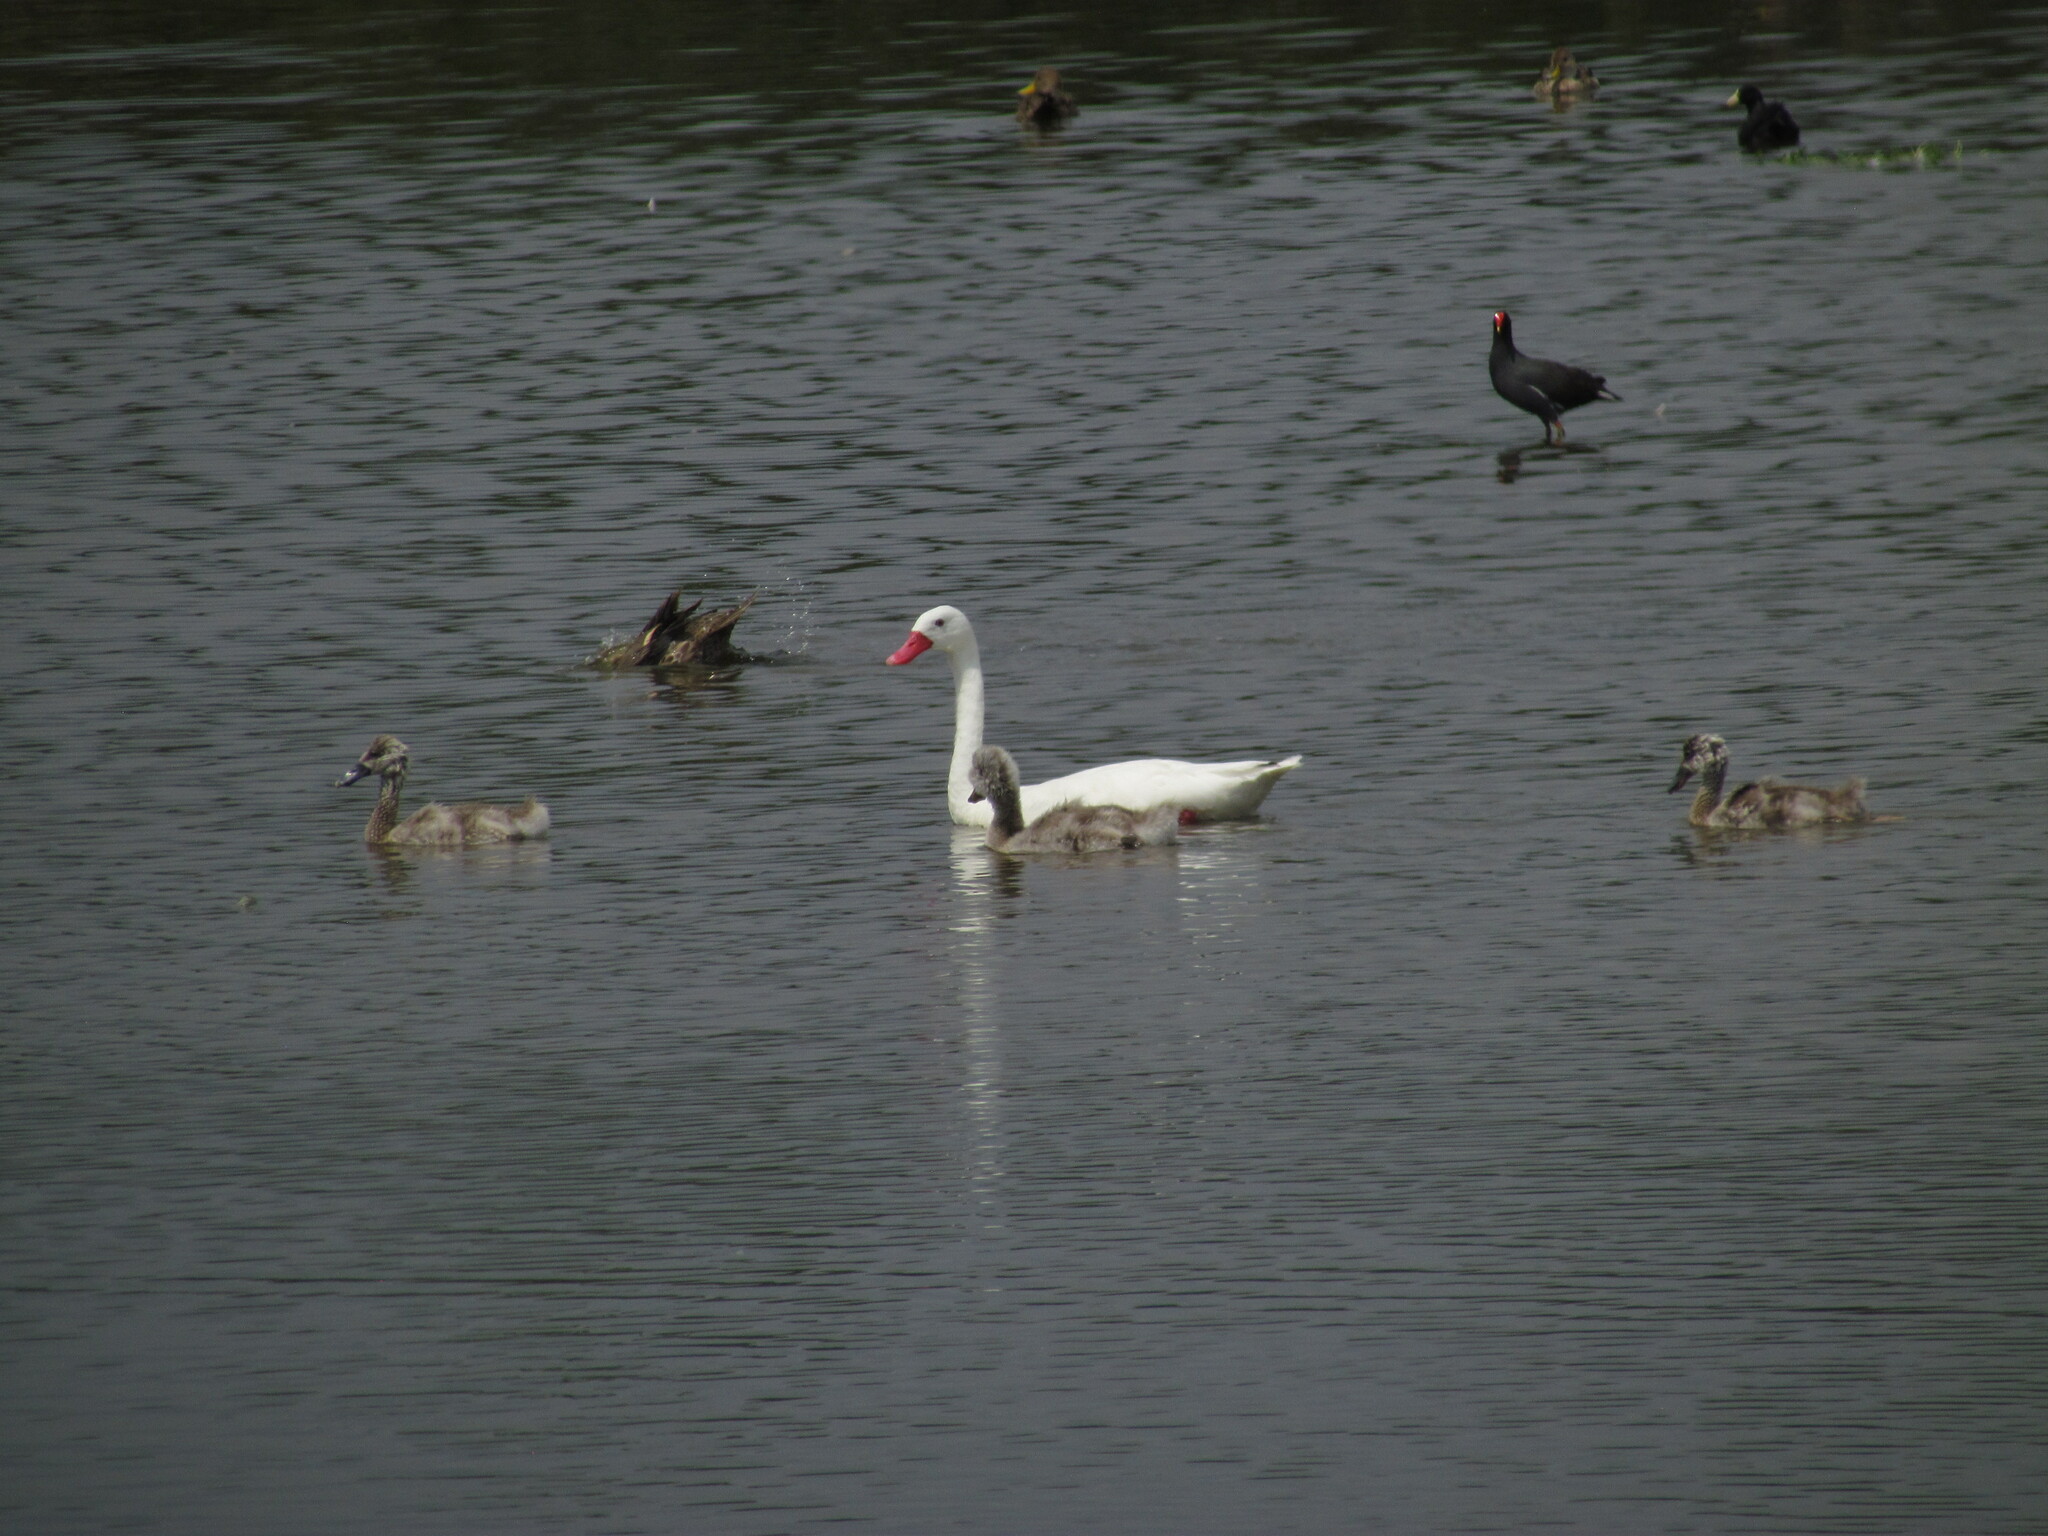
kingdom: Animalia
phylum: Chordata
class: Aves
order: Anseriformes
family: Anatidae
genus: Coscoroba
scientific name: Coscoroba coscoroba
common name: Coscoroba swan
